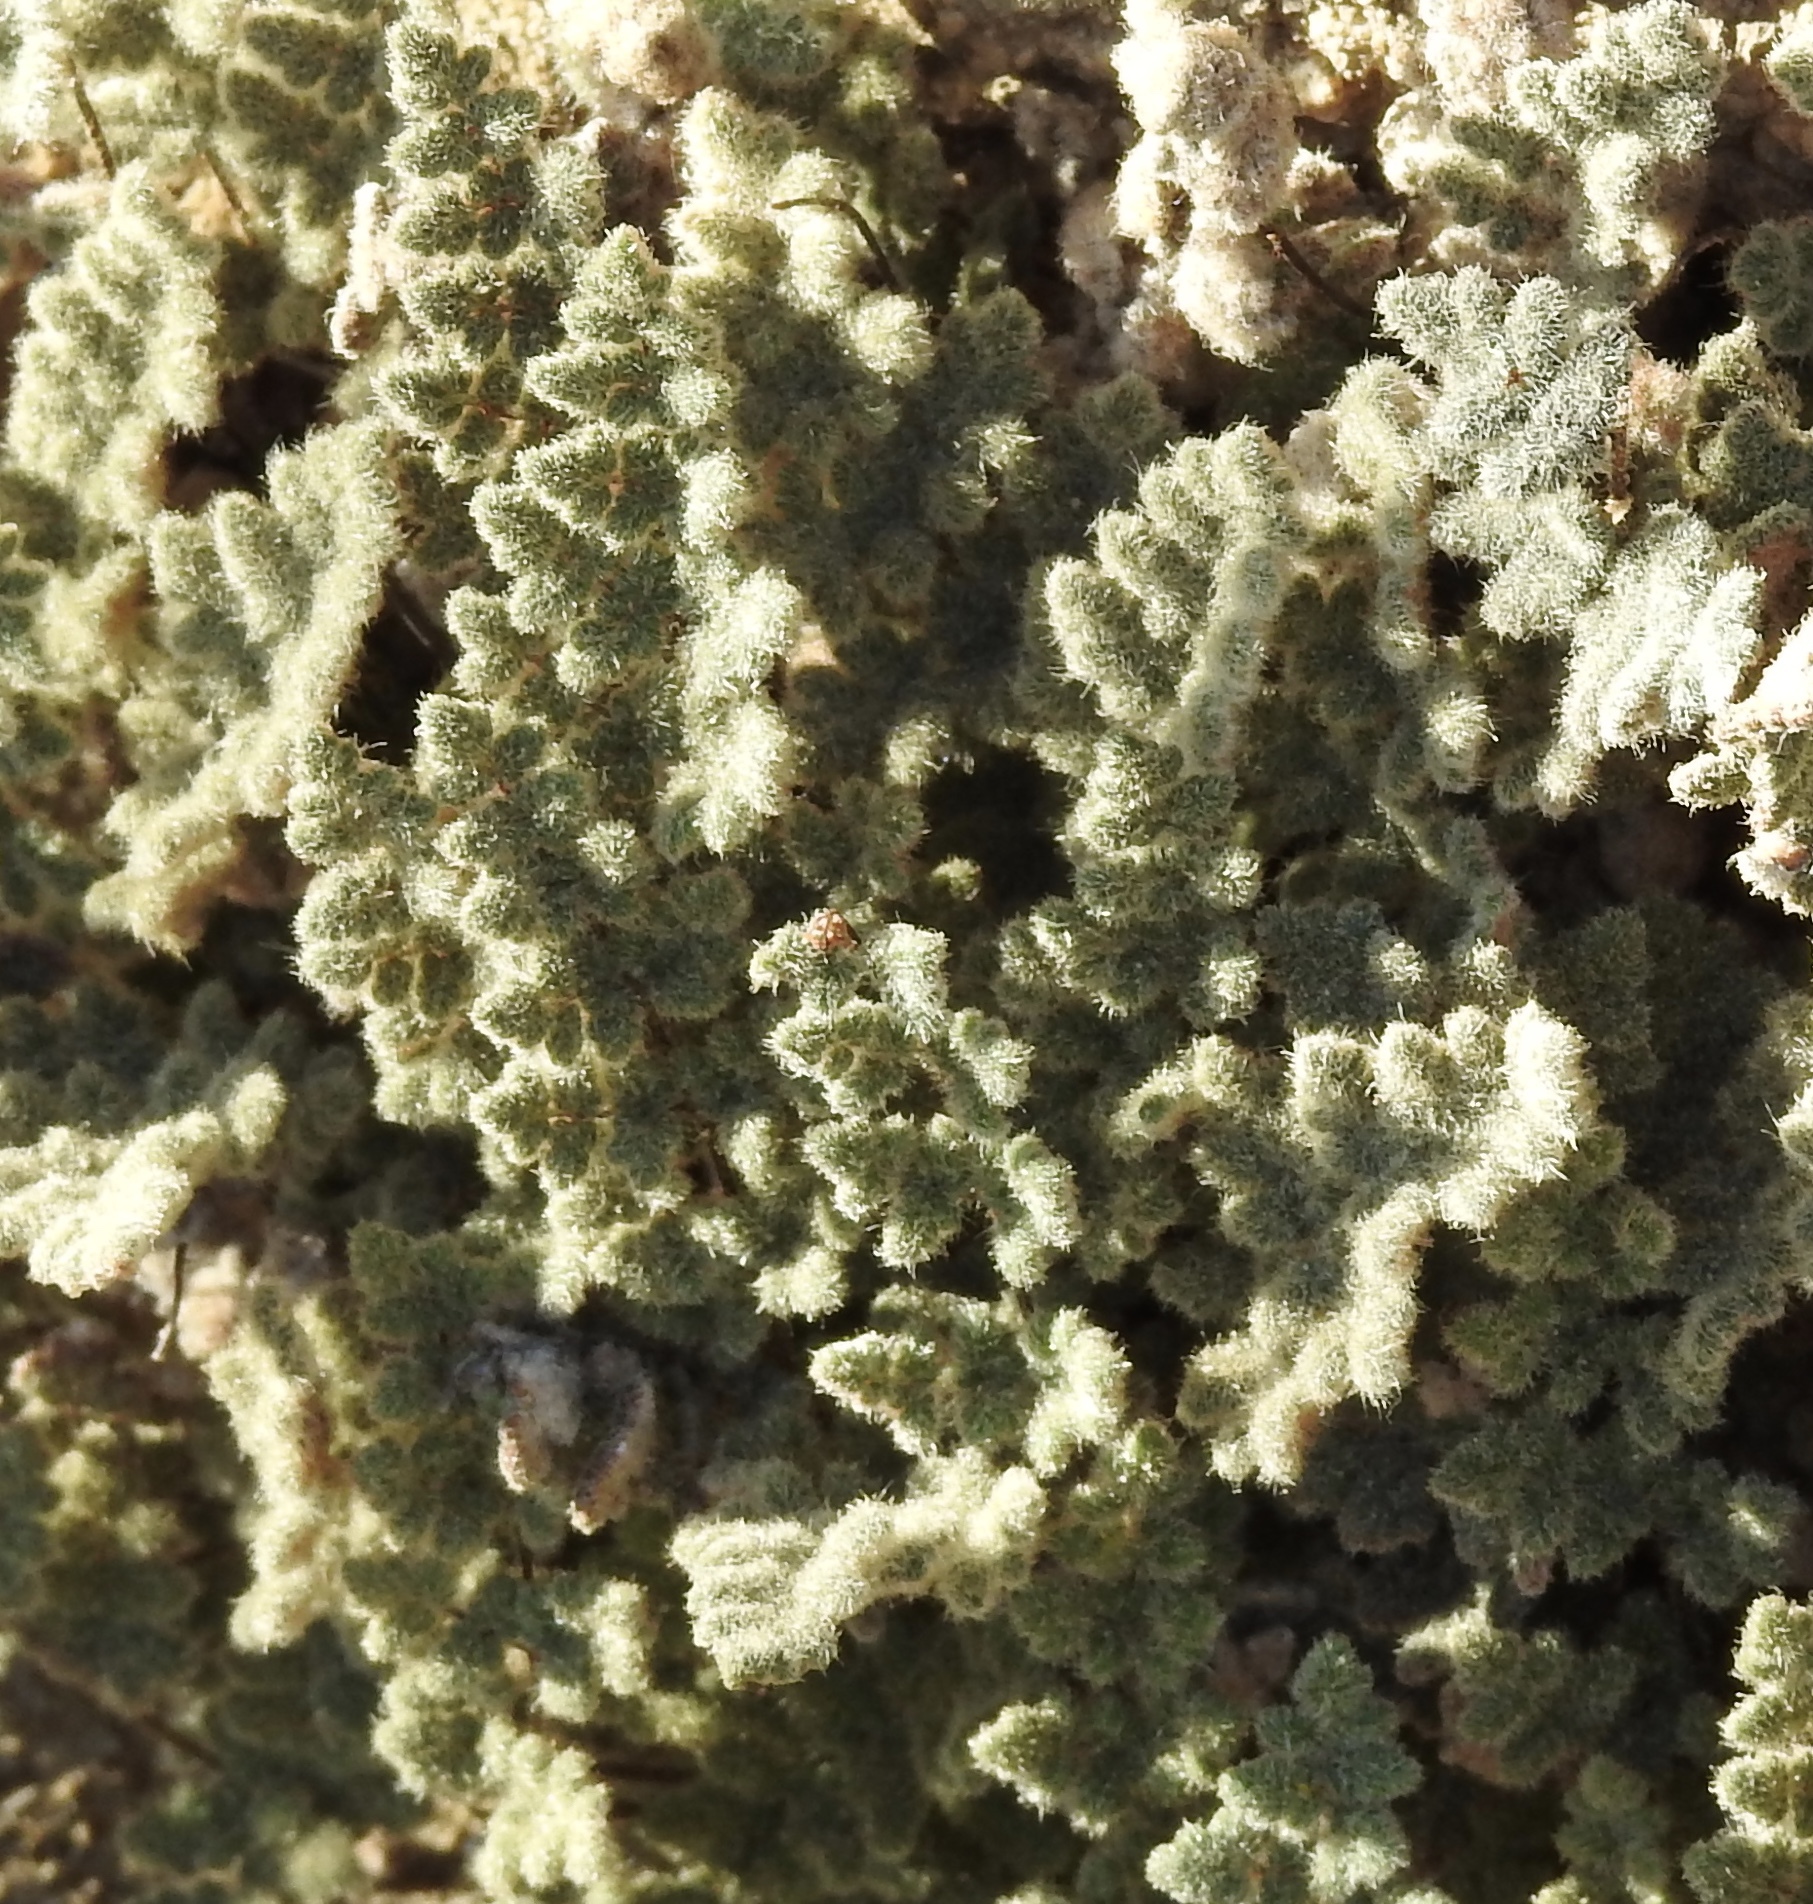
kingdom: Plantae
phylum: Tracheophyta
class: Polypodiopsida
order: Polypodiales
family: Pteridaceae
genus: Myriopteris
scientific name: Myriopteris parryi
